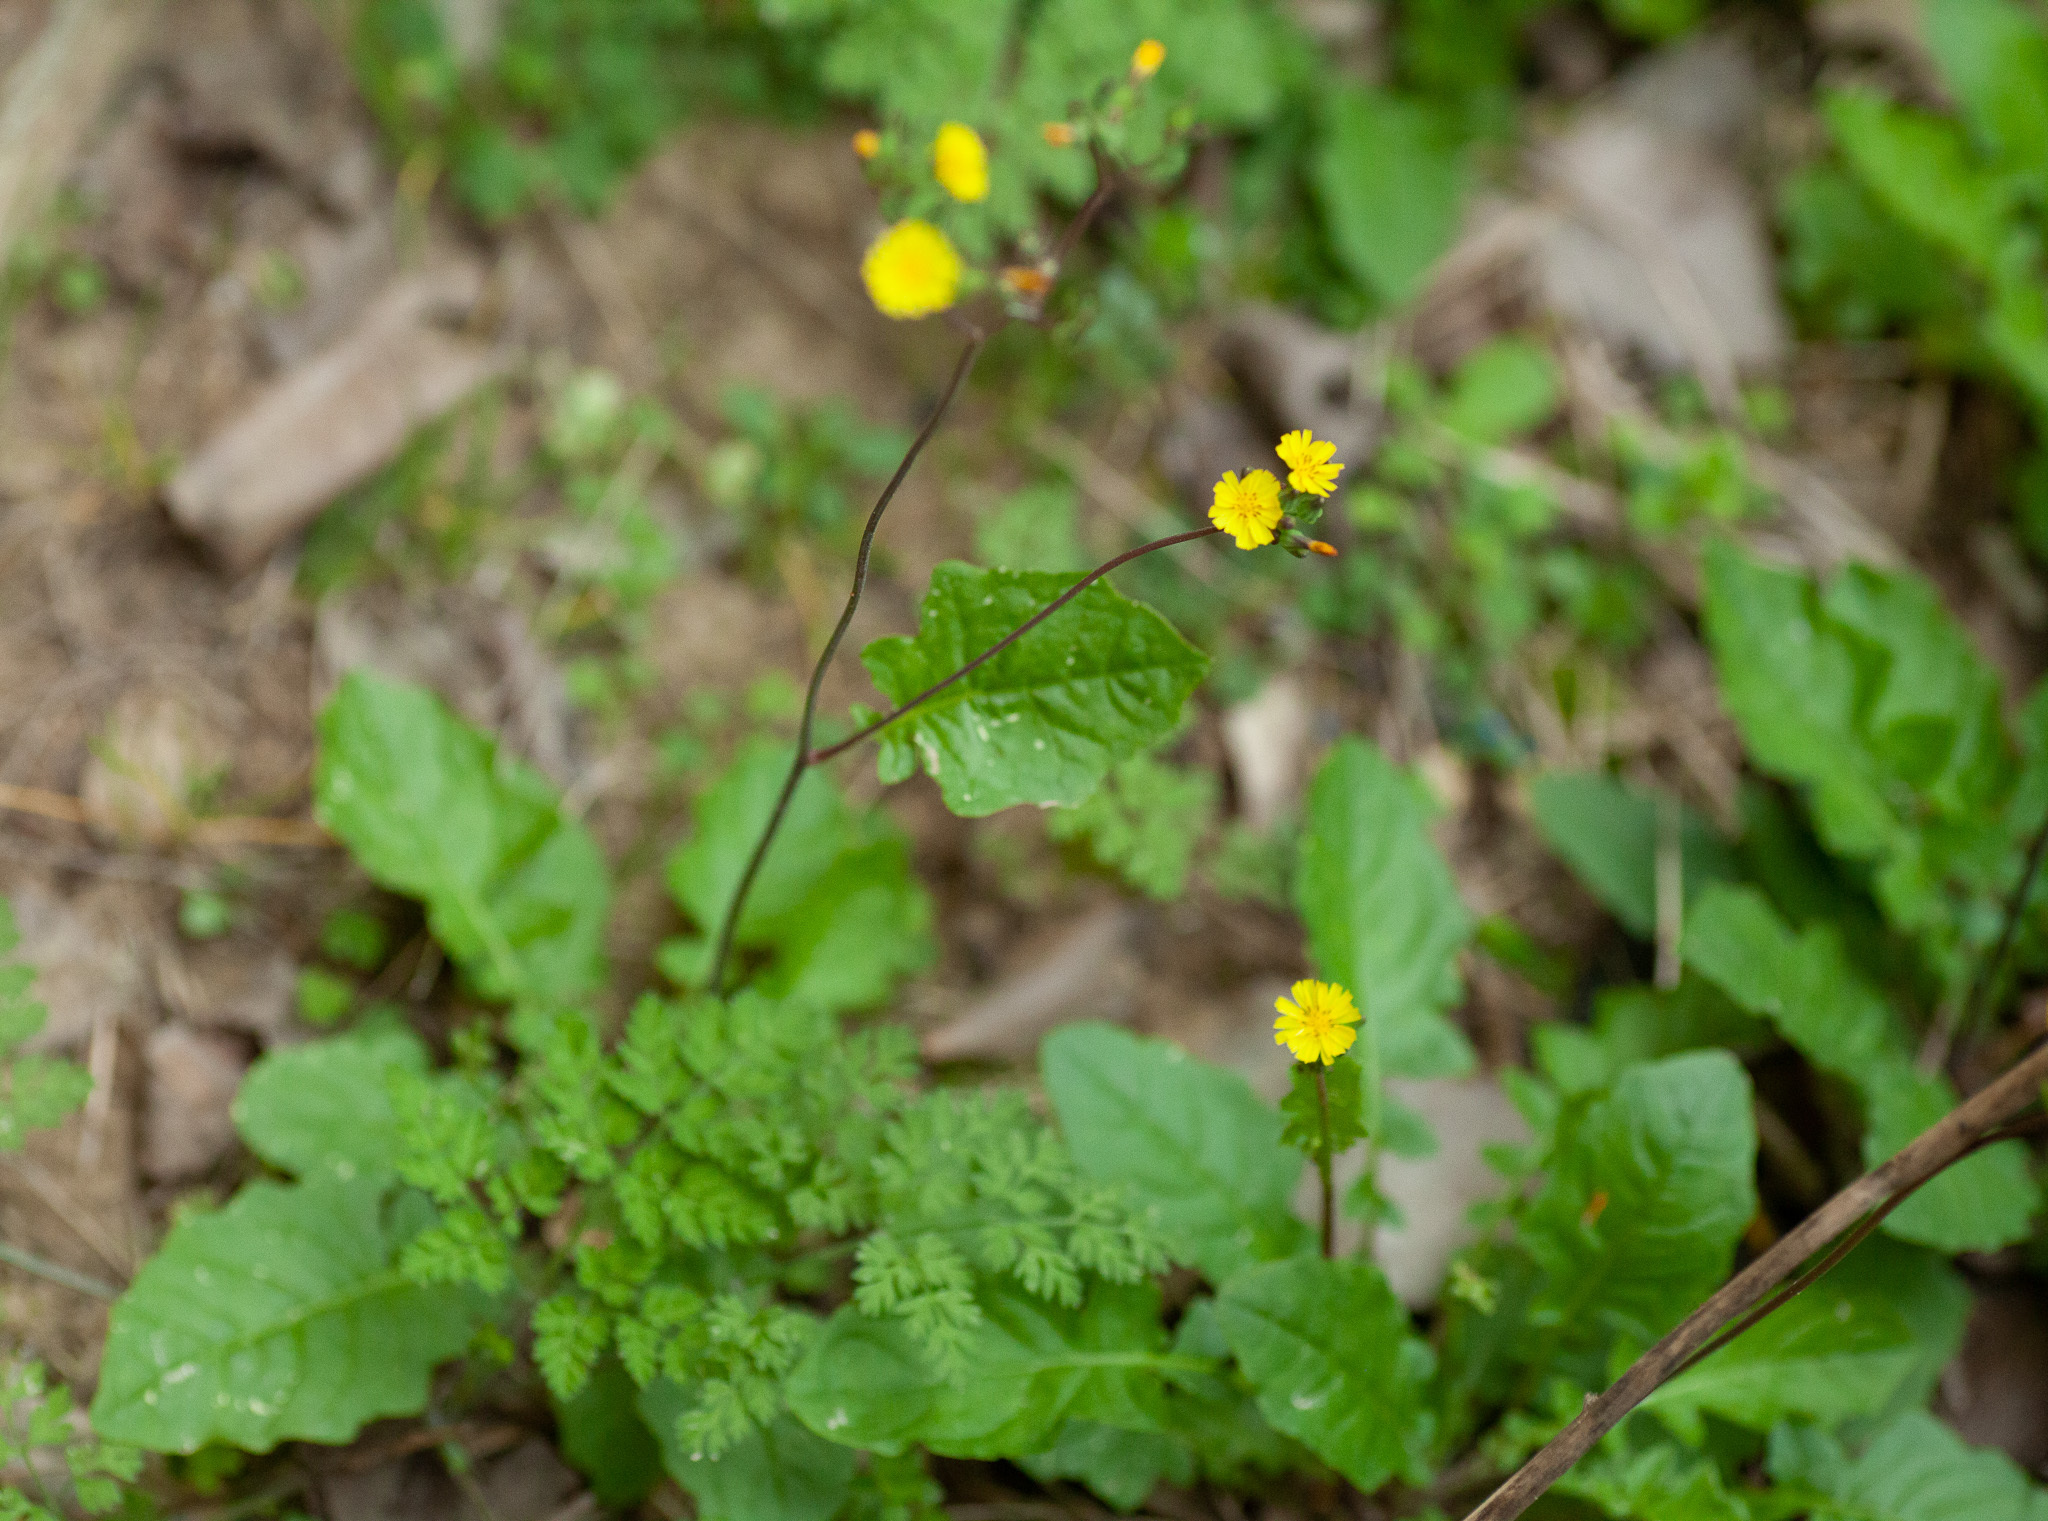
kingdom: Plantae
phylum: Tracheophyta
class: Magnoliopsida
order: Asterales
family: Asteraceae
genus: Youngia
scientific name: Youngia japonica
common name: Oriental false hawksbeard
